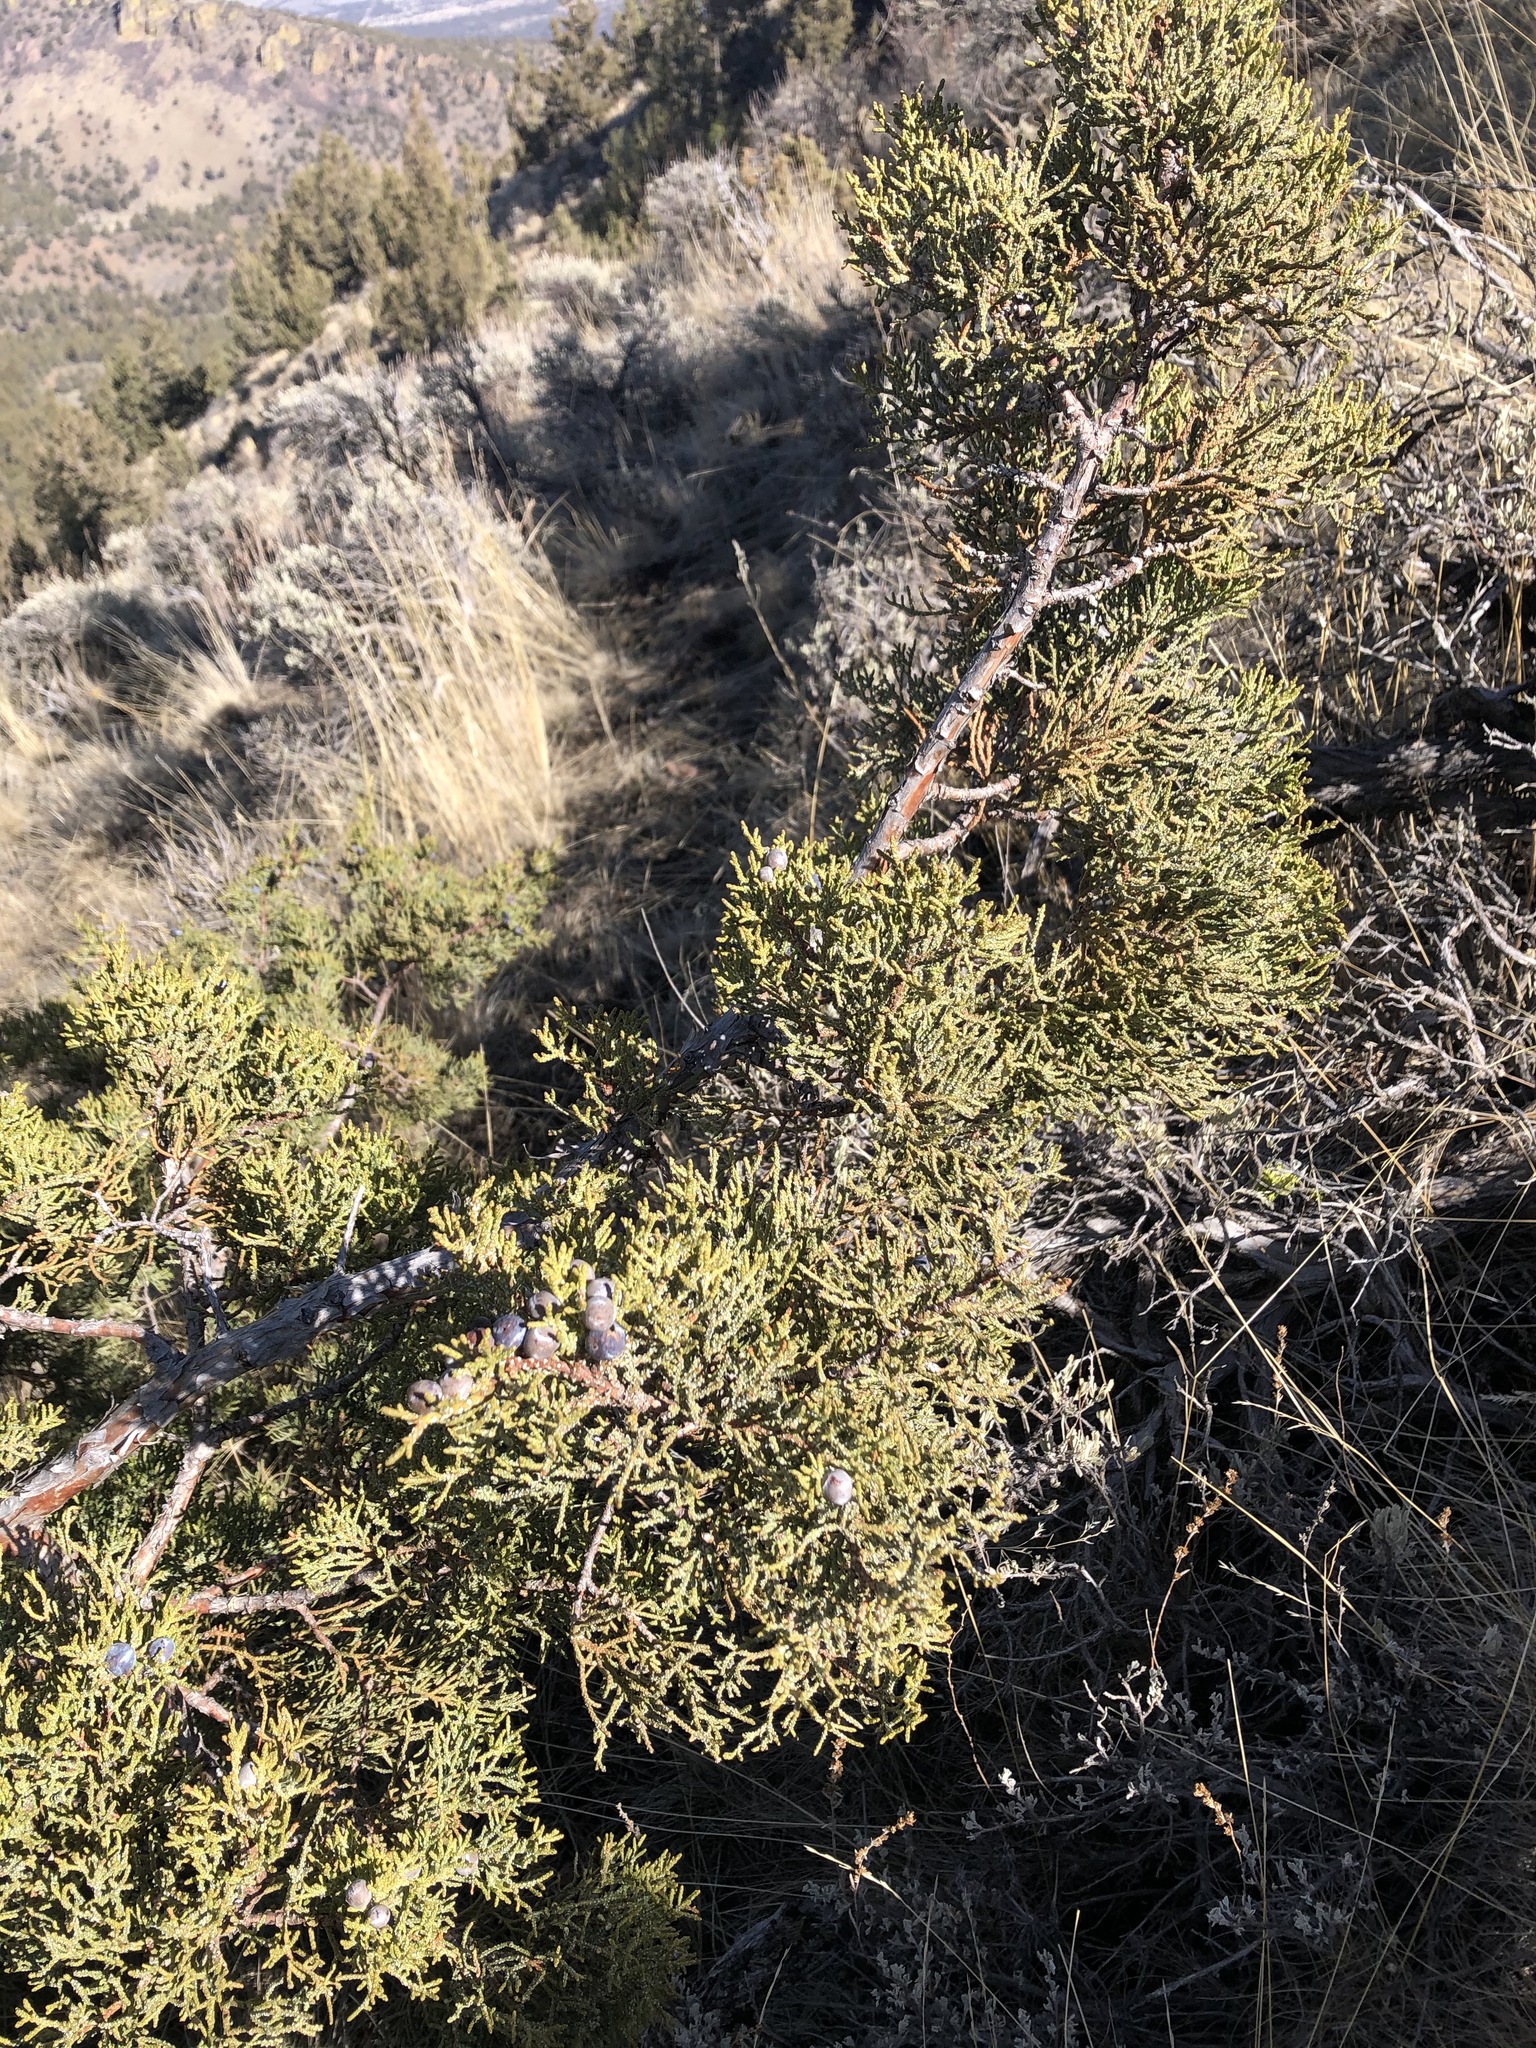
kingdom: Plantae
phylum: Tracheophyta
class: Pinopsida
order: Pinales
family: Cupressaceae
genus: Juniperus
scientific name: Juniperus occidentalis
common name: Western juniper
